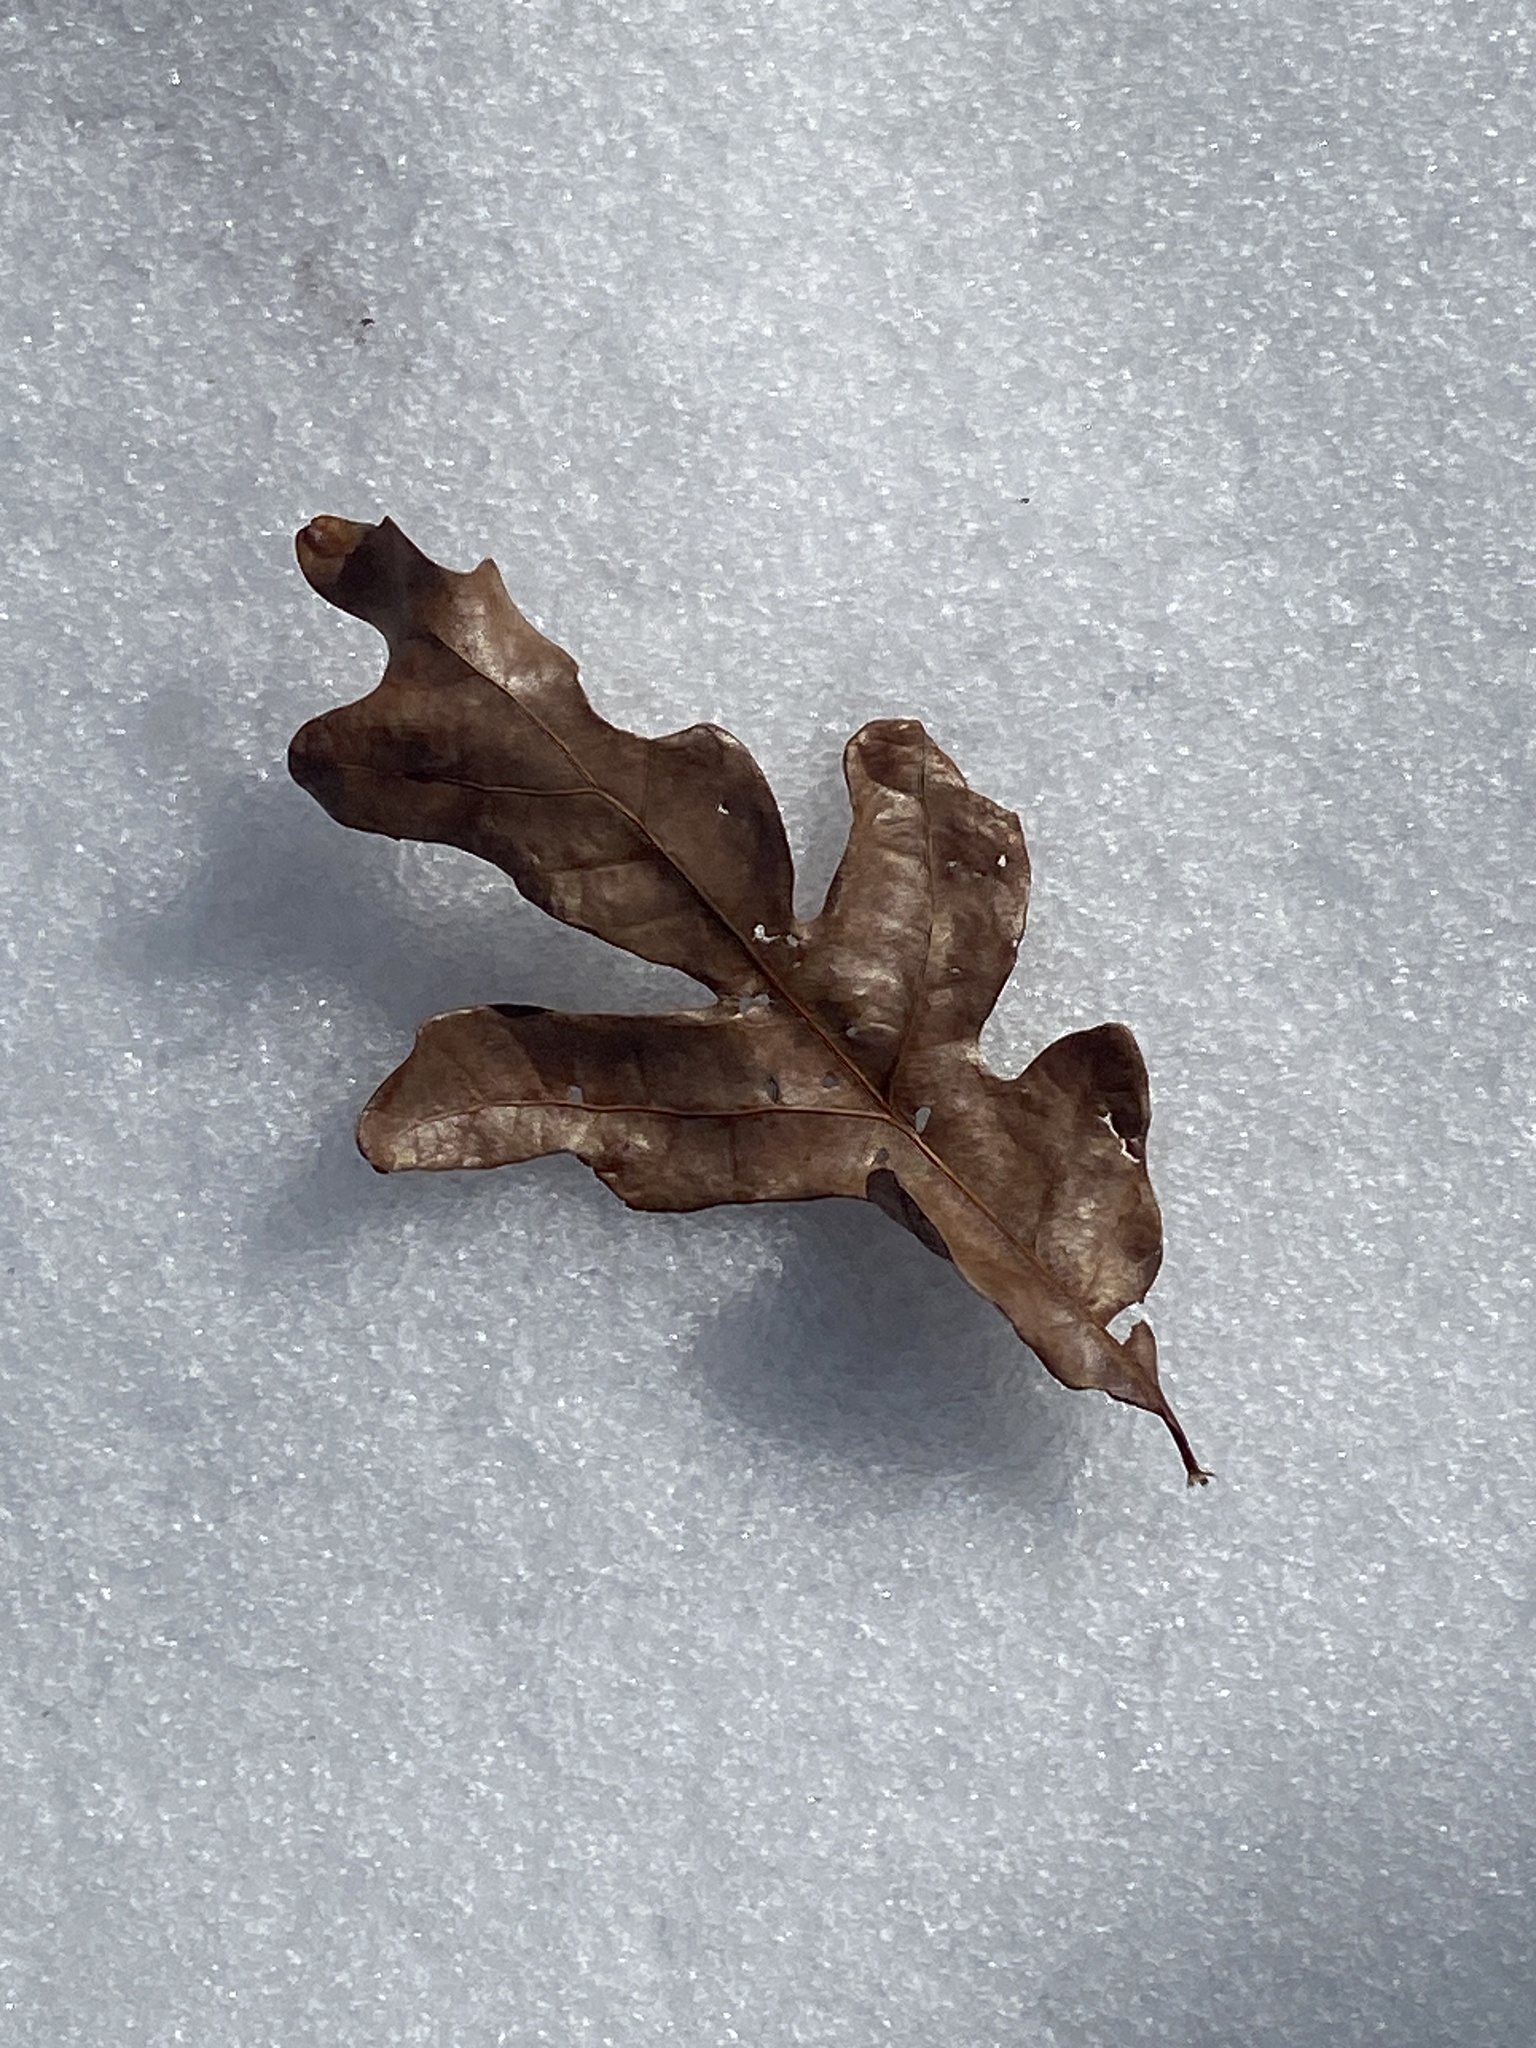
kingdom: Plantae
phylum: Tracheophyta
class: Magnoliopsida
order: Fagales
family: Fagaceae
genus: Quercus
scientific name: Quercus alba
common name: White oak
